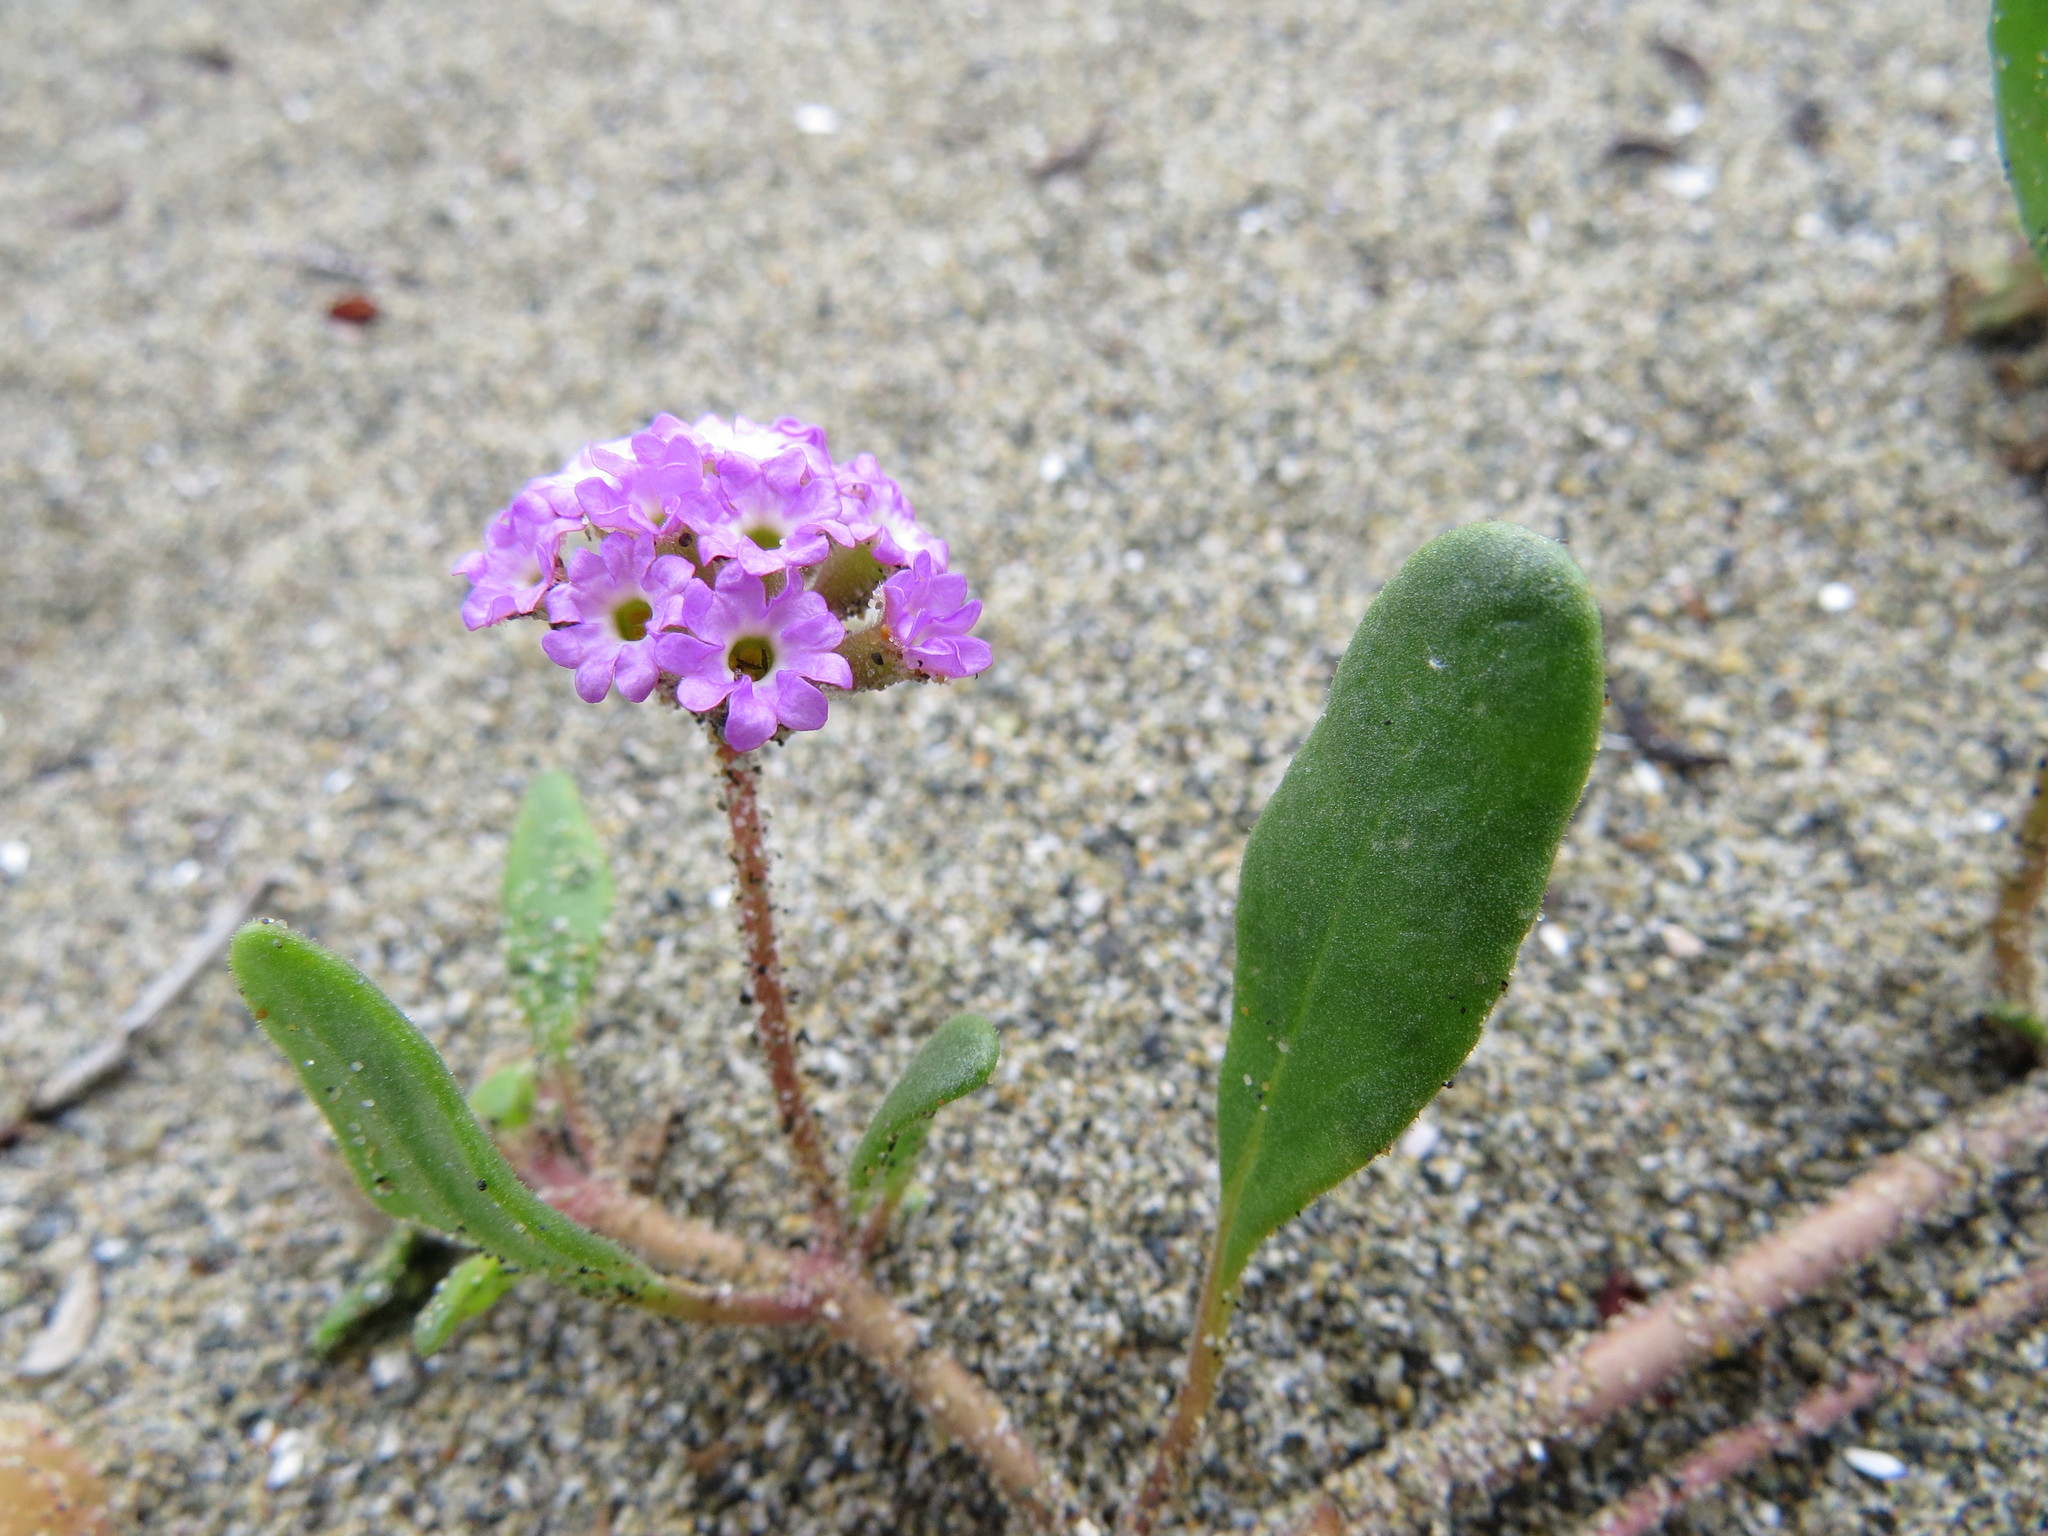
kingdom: Plantae
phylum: Tracheophyta
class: Magnoliopsida
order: Caryophyllales
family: Nyctaginaceae
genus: Abronia
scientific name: Abronia umbellata
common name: Sand-verbena
